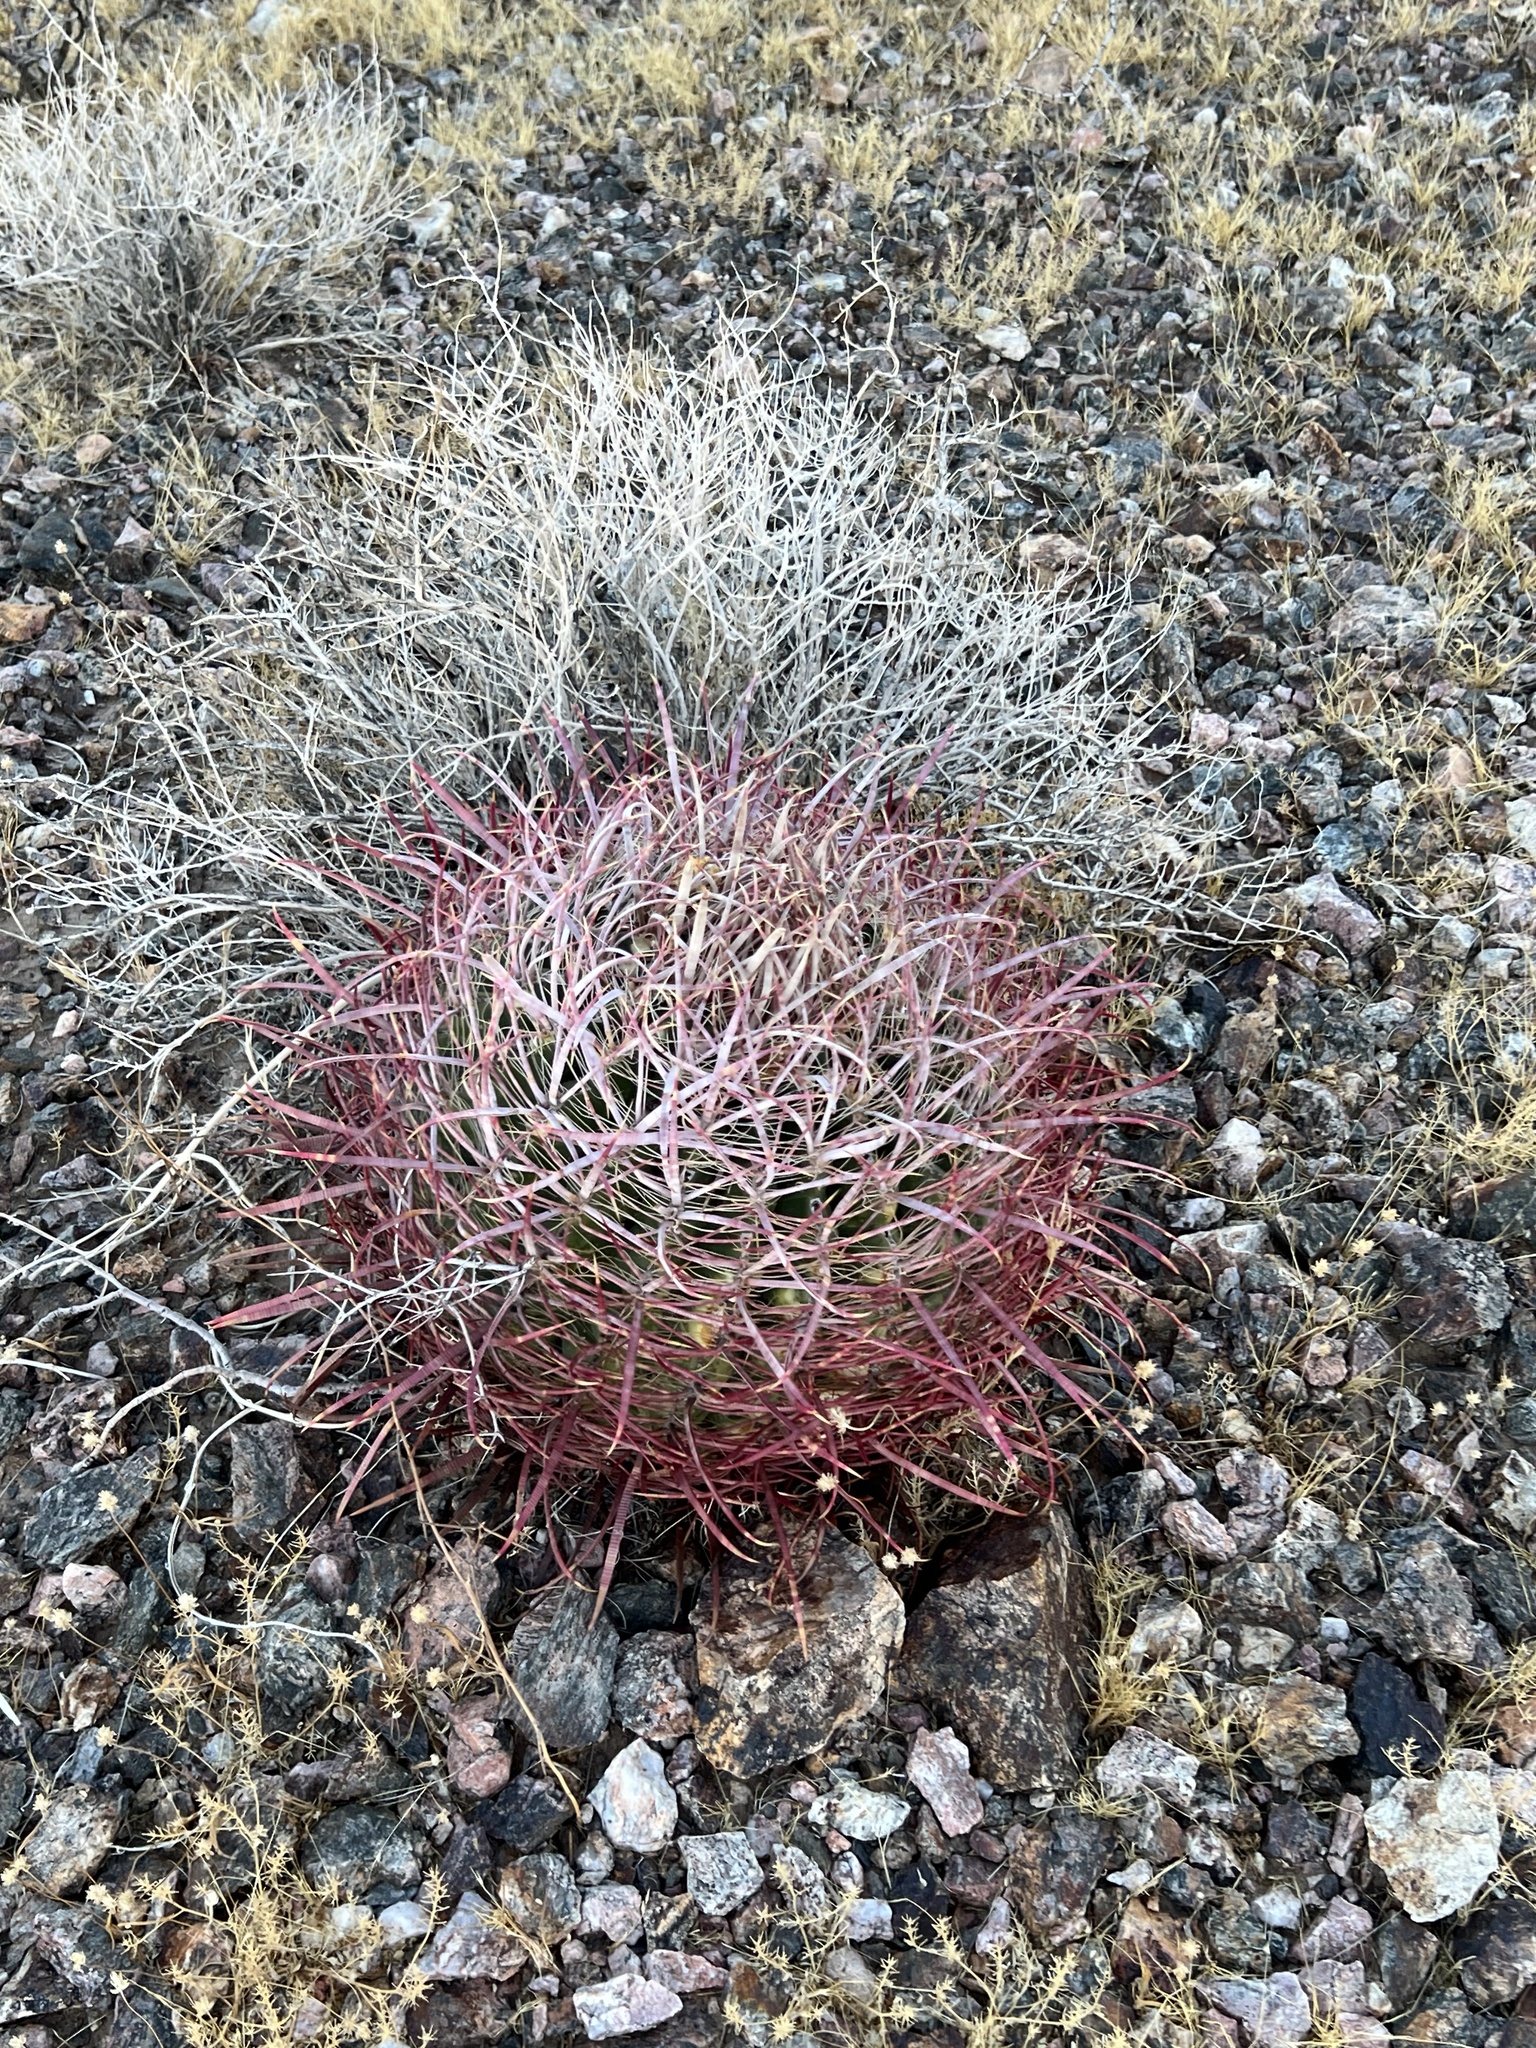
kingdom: Plantae
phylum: Tracheophyta
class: Magnoliopsida
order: Caryophyllales
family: Cactaceae
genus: Ferocactus
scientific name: Ferocactus cylindraceus
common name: California barrel cactus
